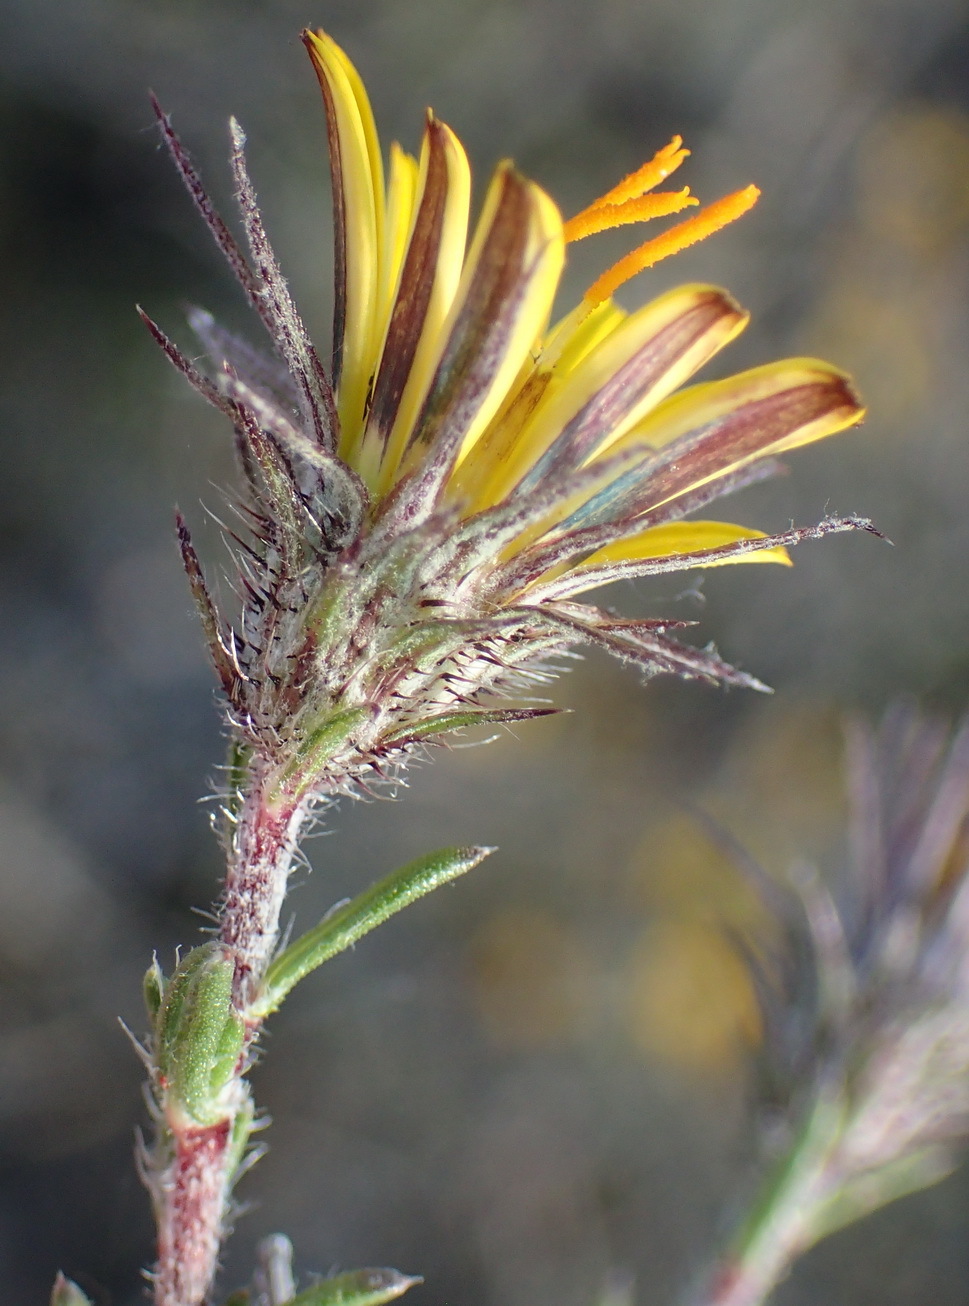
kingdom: Plantae
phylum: Tracheophyta
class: Magnoliopsida
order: Asterales
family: Asteraceae
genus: Hirpicium
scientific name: Hirpicium integrifolium
